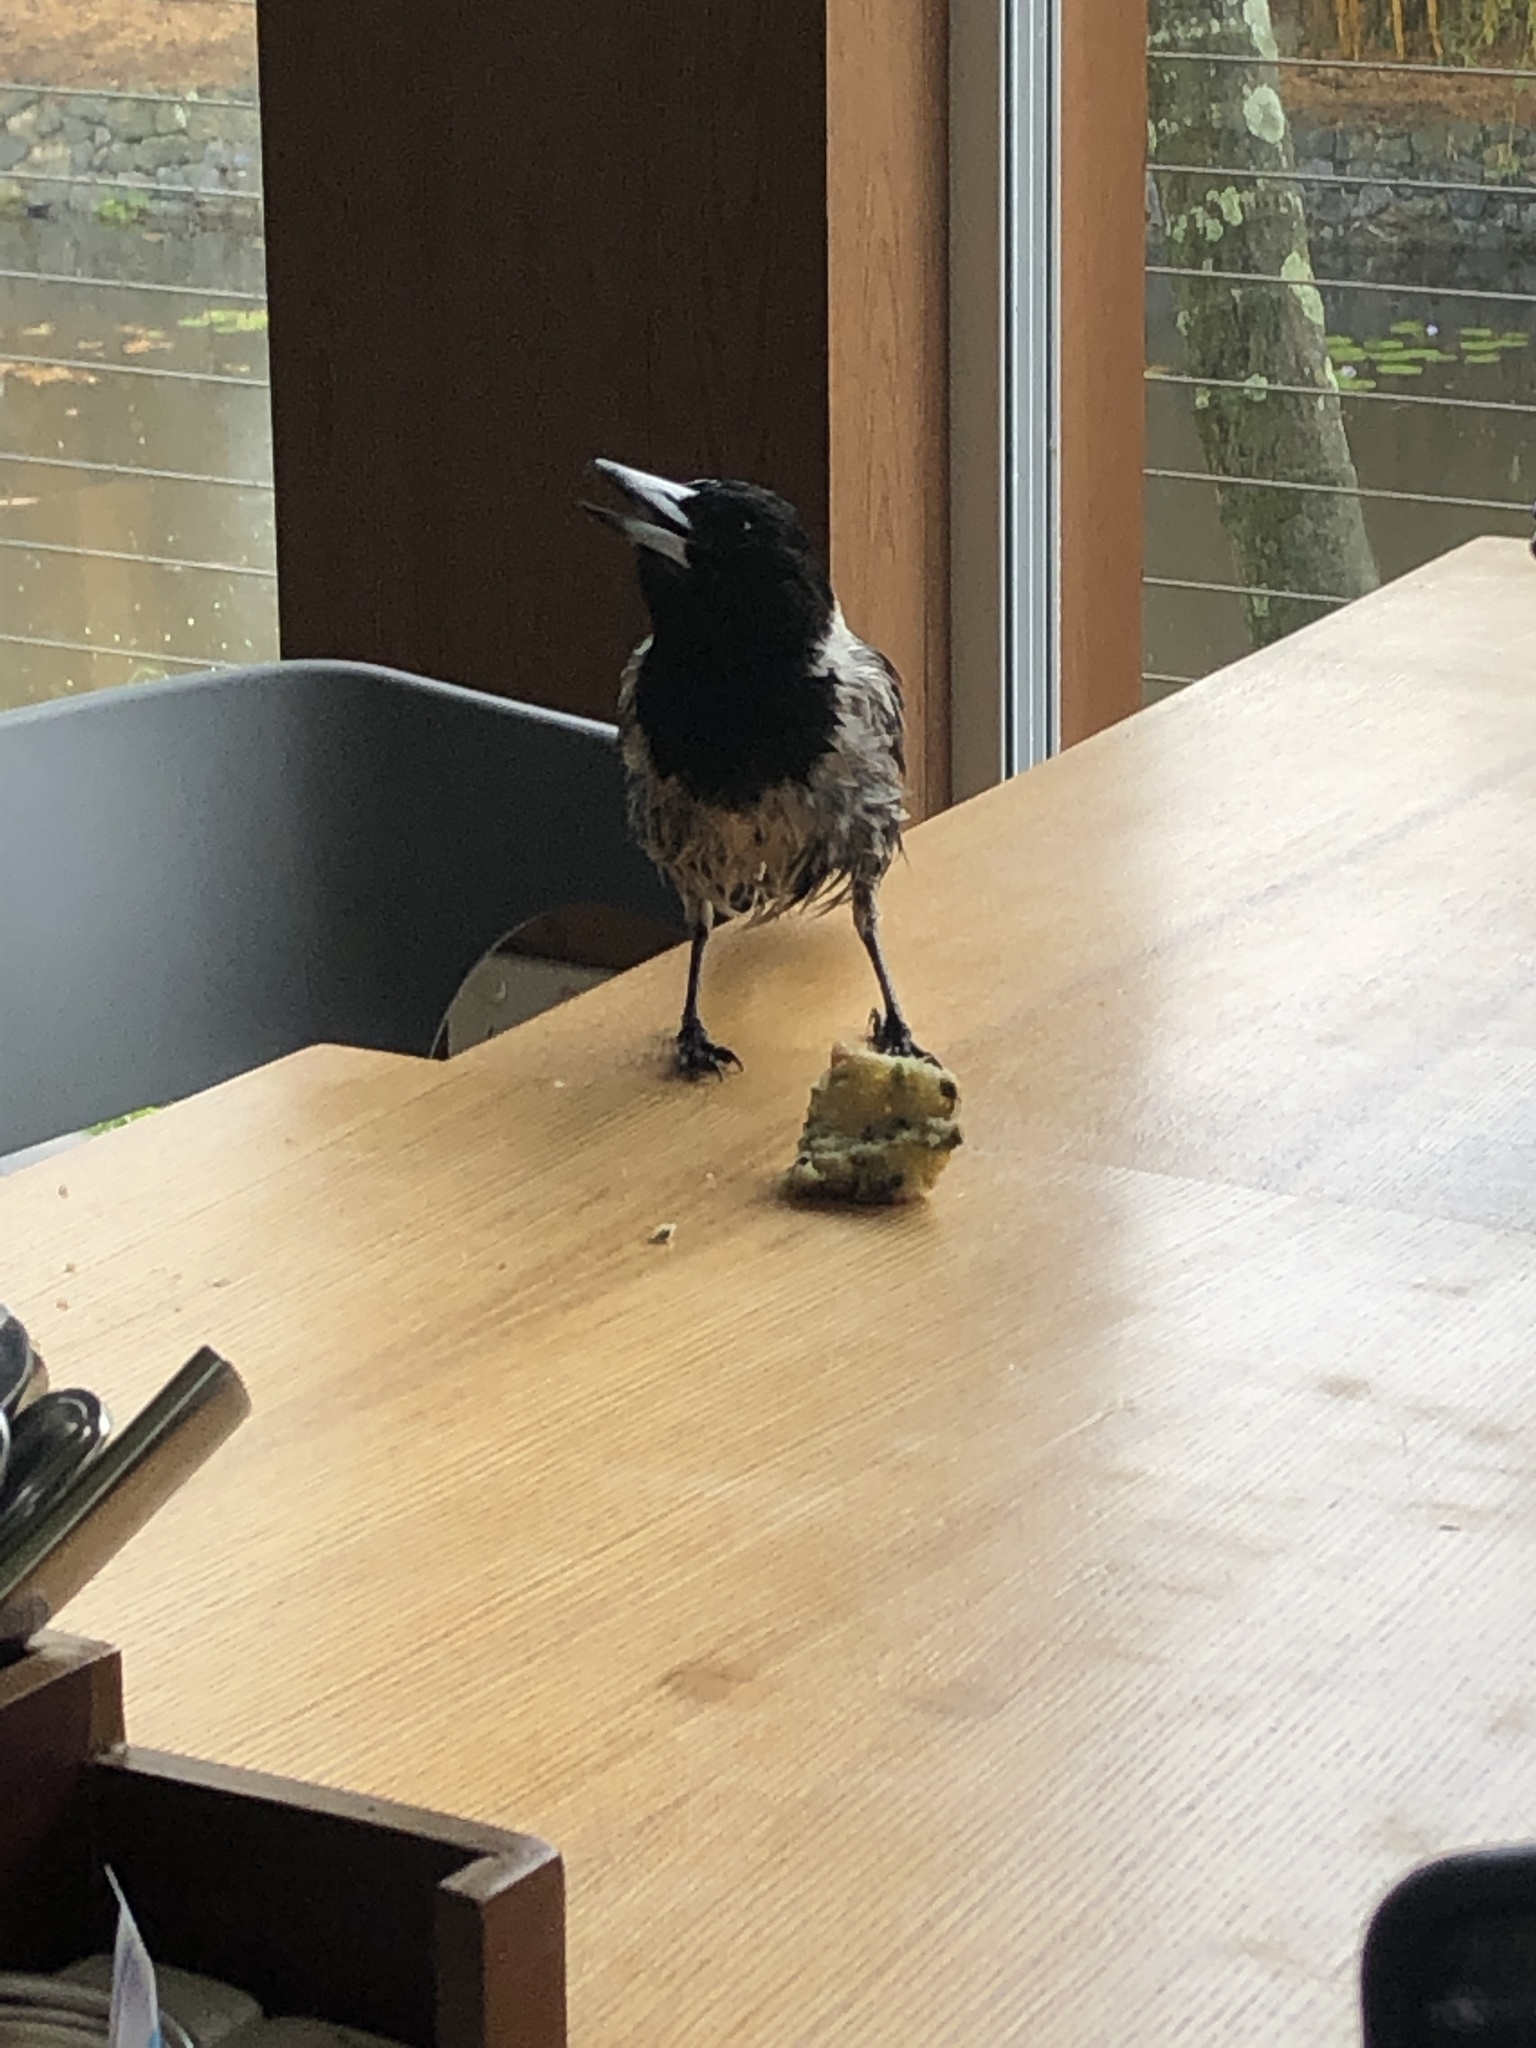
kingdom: Animalia
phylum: Chordata
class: Aves
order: Passeriformes
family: Cracticidae
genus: Cracticus
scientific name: Cracticus nigrogularis
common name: Pied butcherbird
